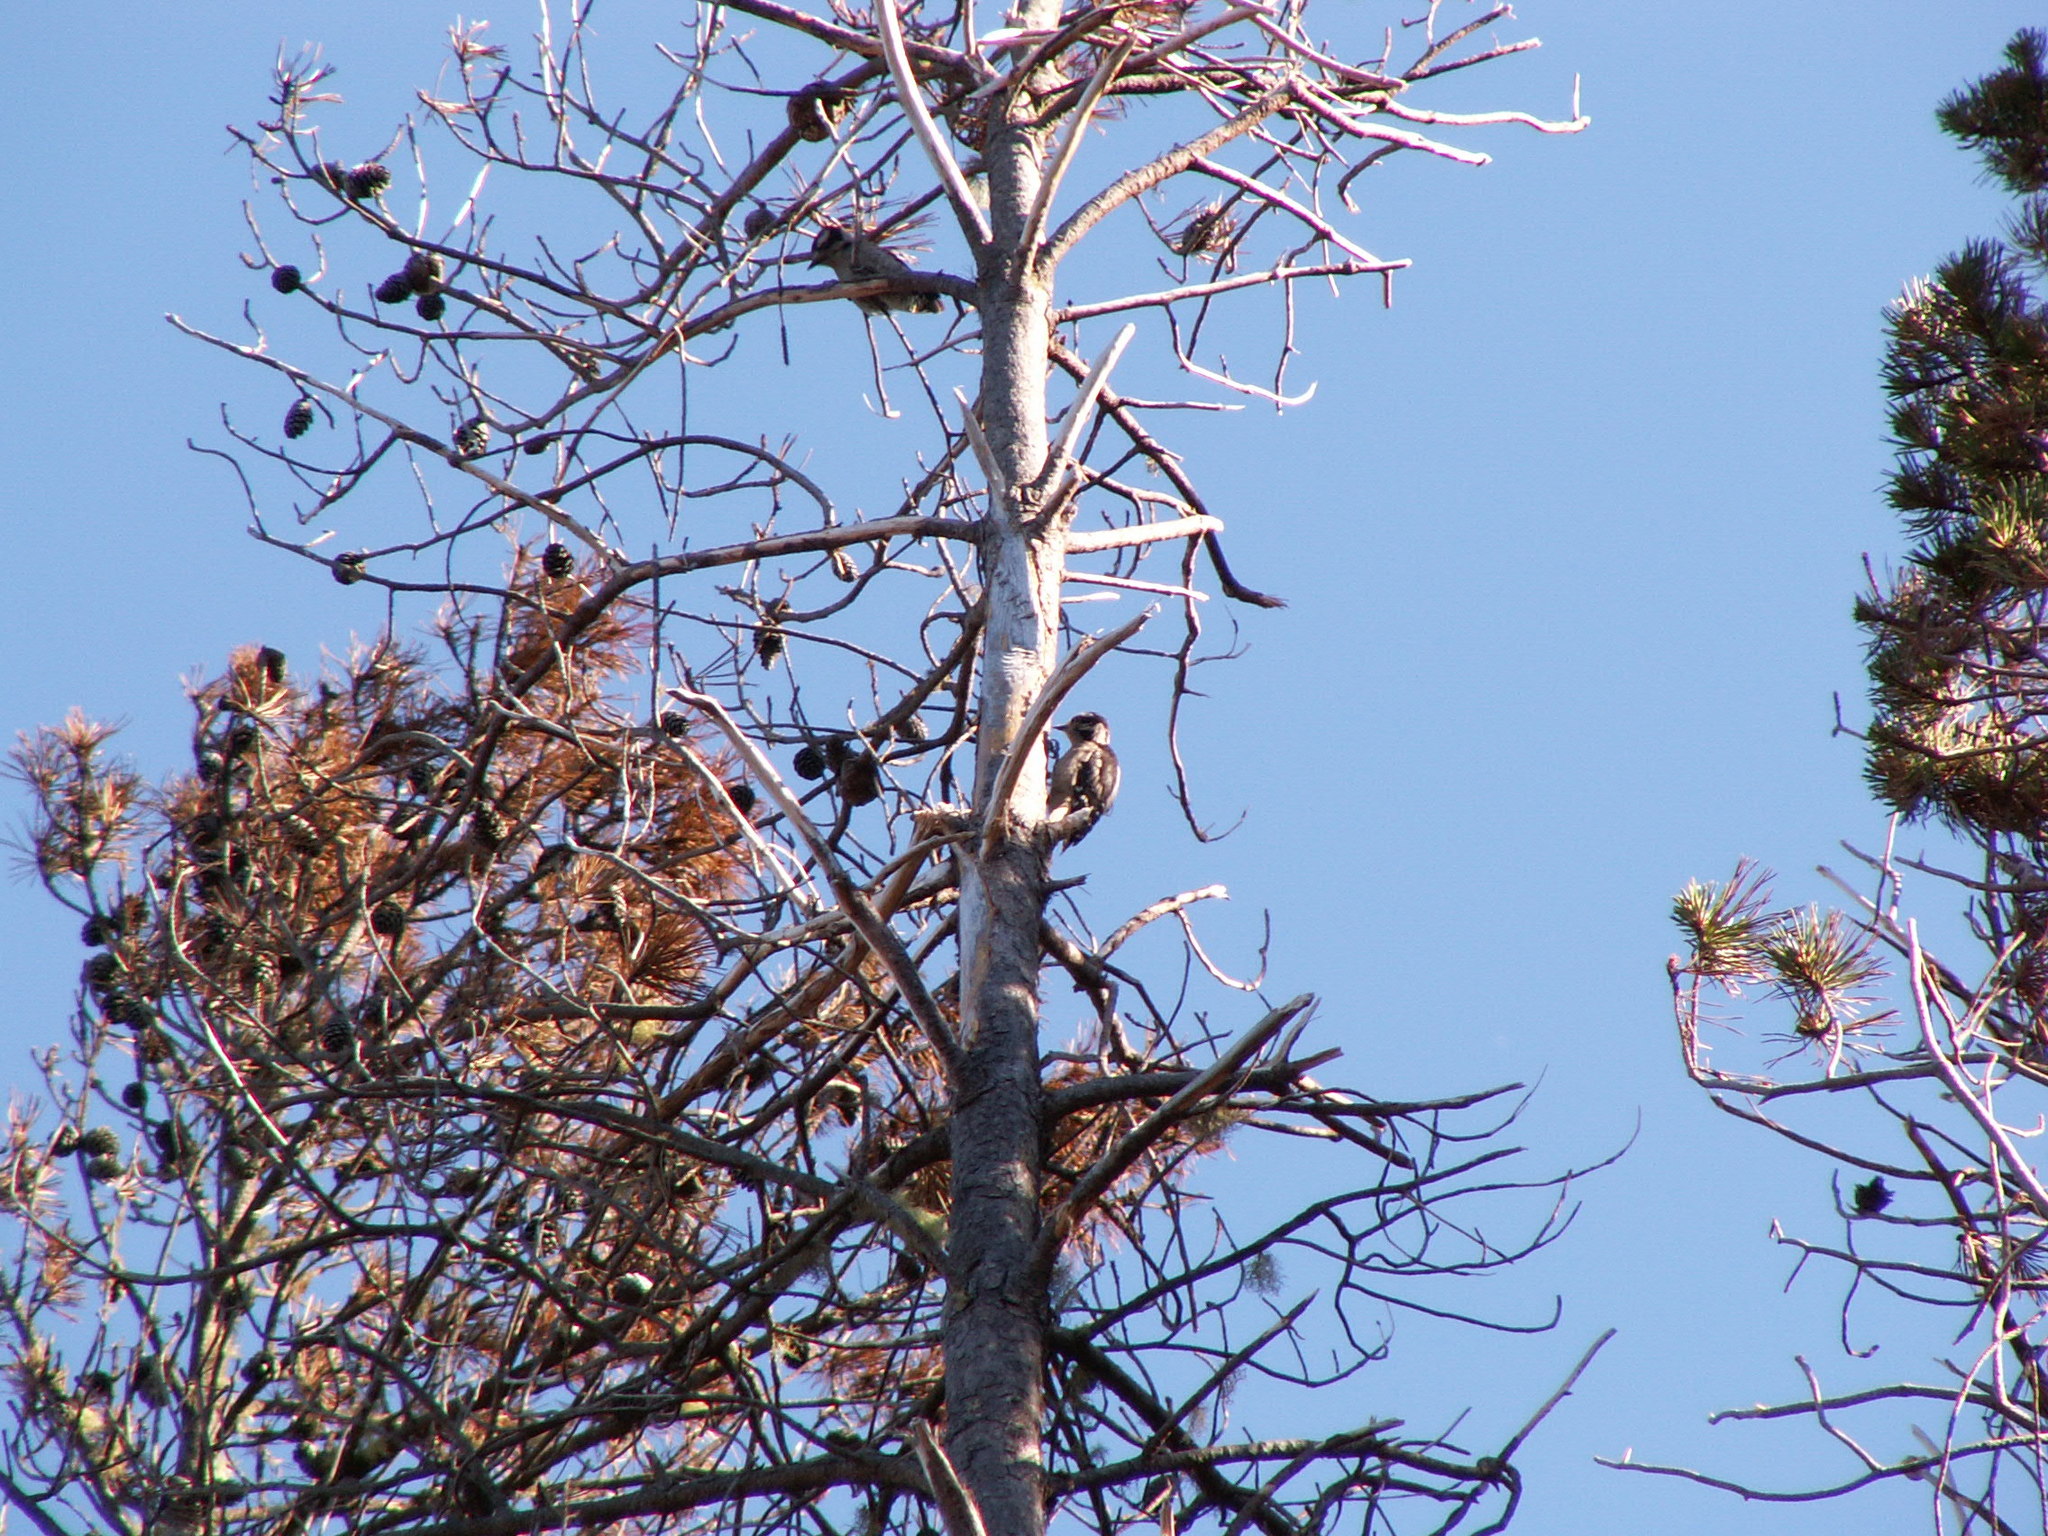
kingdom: Animalia
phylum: Chordata
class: Aves
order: Piciformes
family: Picidae
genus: Dryobates
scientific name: Dryobates pubescens
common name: Downy woodpecker
